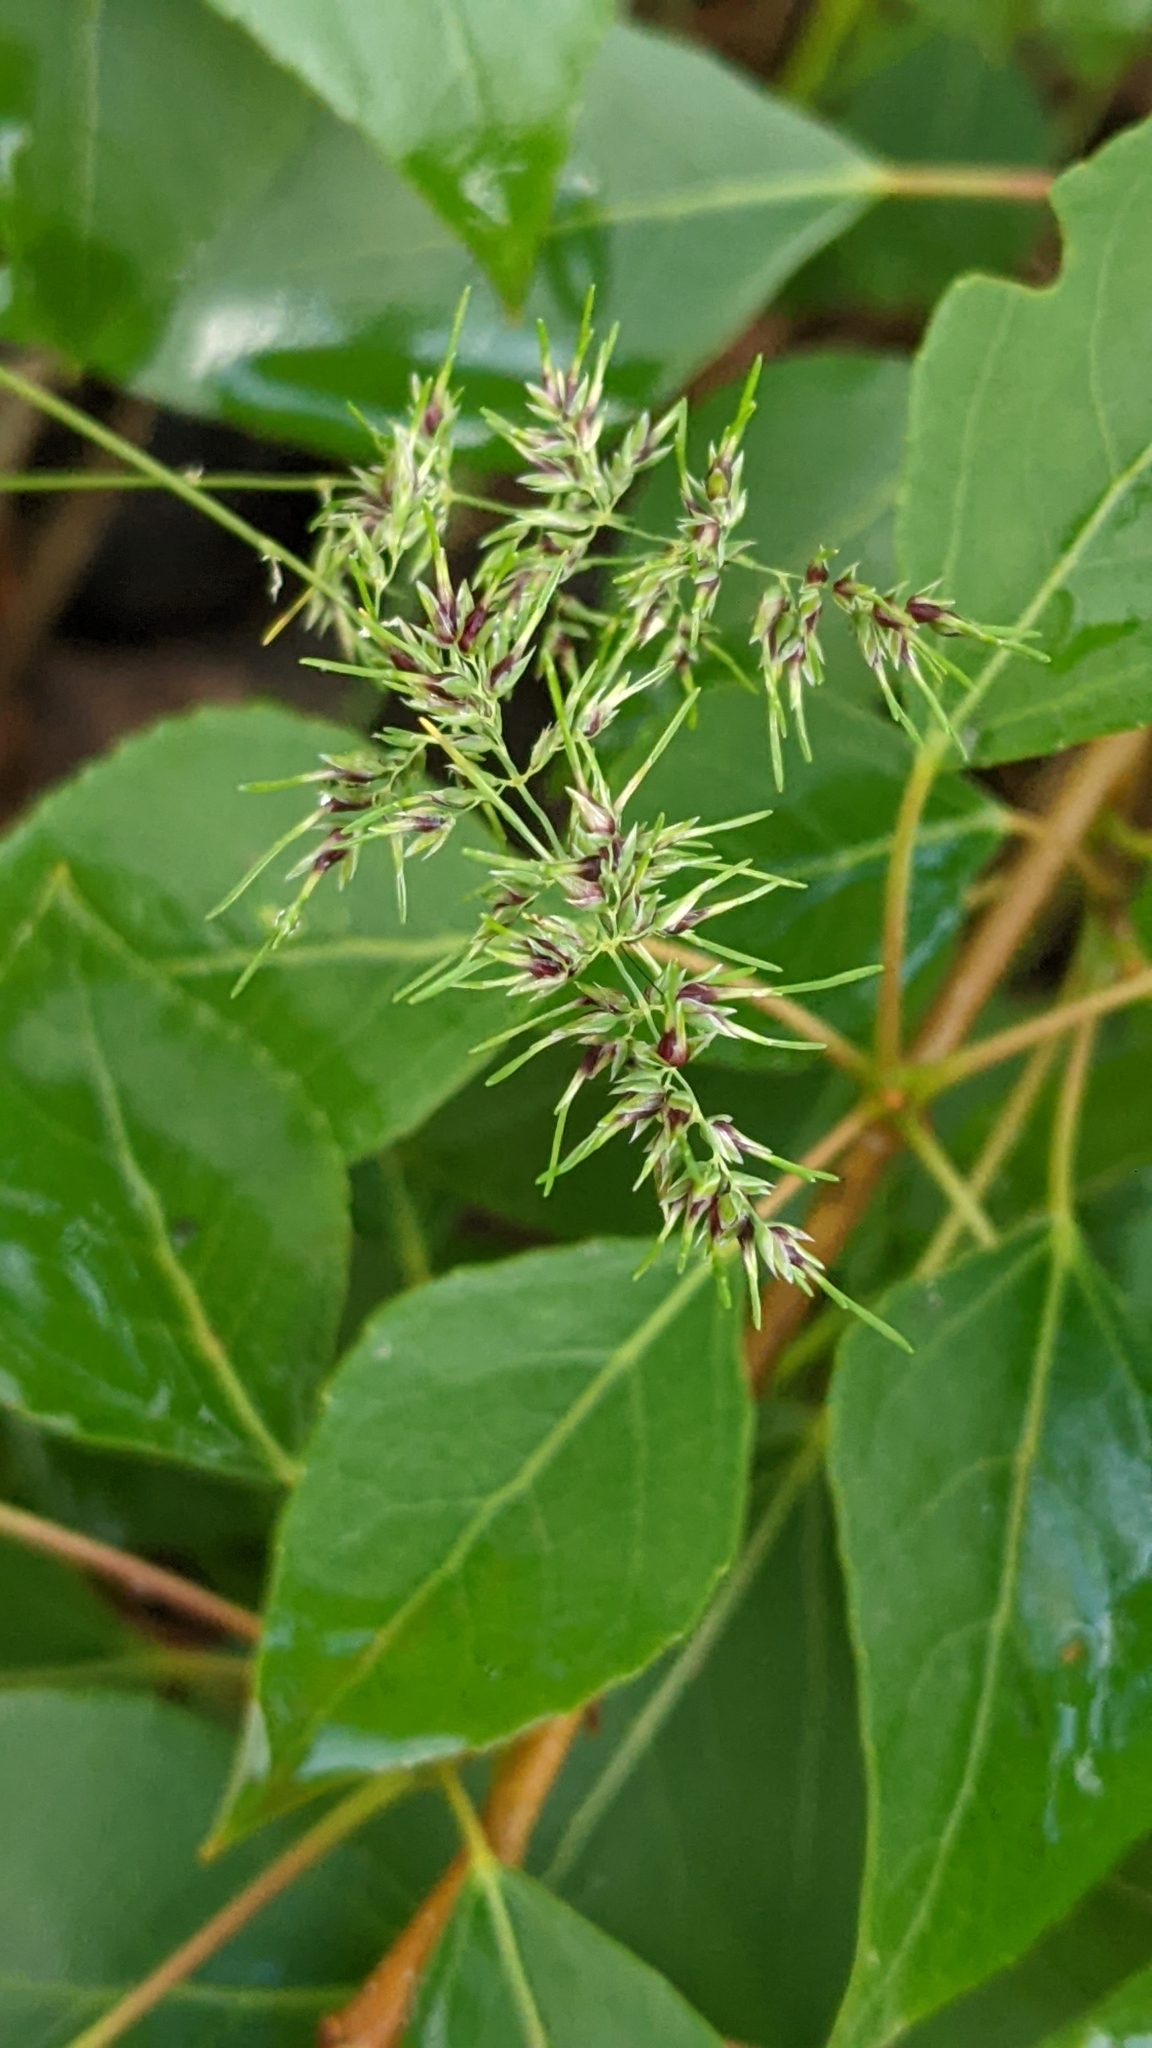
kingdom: Plantae
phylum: Tracheophyta
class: Liliopsida
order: Poales
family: Poaceae
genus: Poa
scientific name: Poa bulbosa
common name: Bulbous bluegrass
